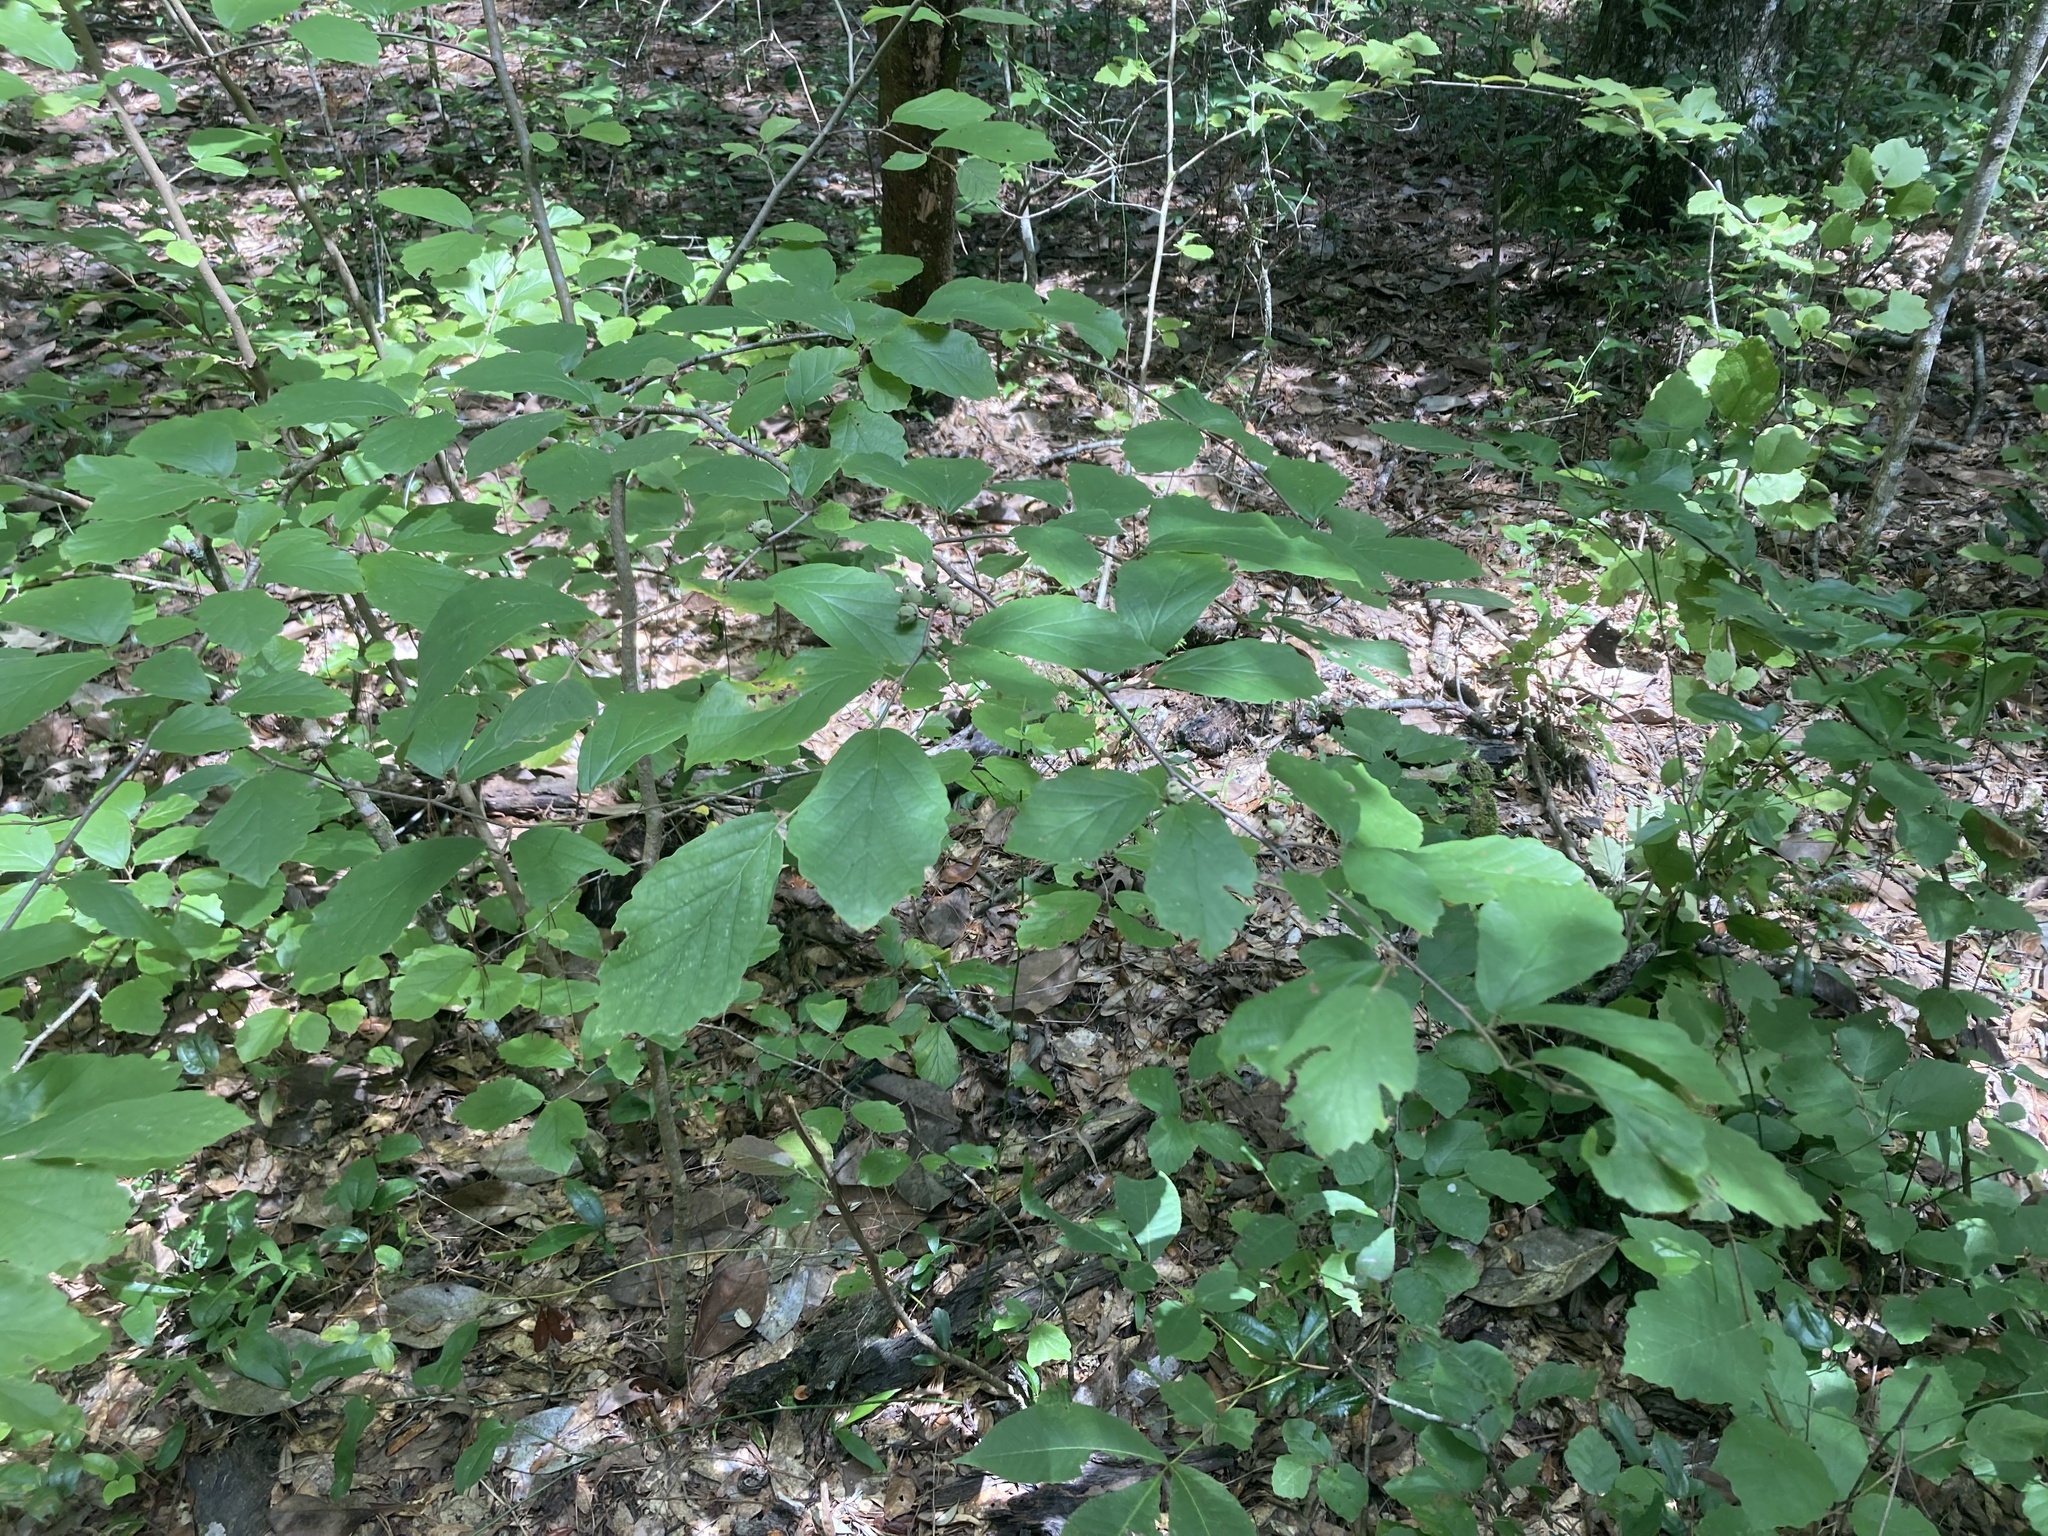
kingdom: Plantae
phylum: Tracheophyta
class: Magnoliopsida
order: Saxifragales
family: Hamamelidaceae
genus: Hamamelis
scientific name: Hamamelis virginiana
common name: Witch-hazel
